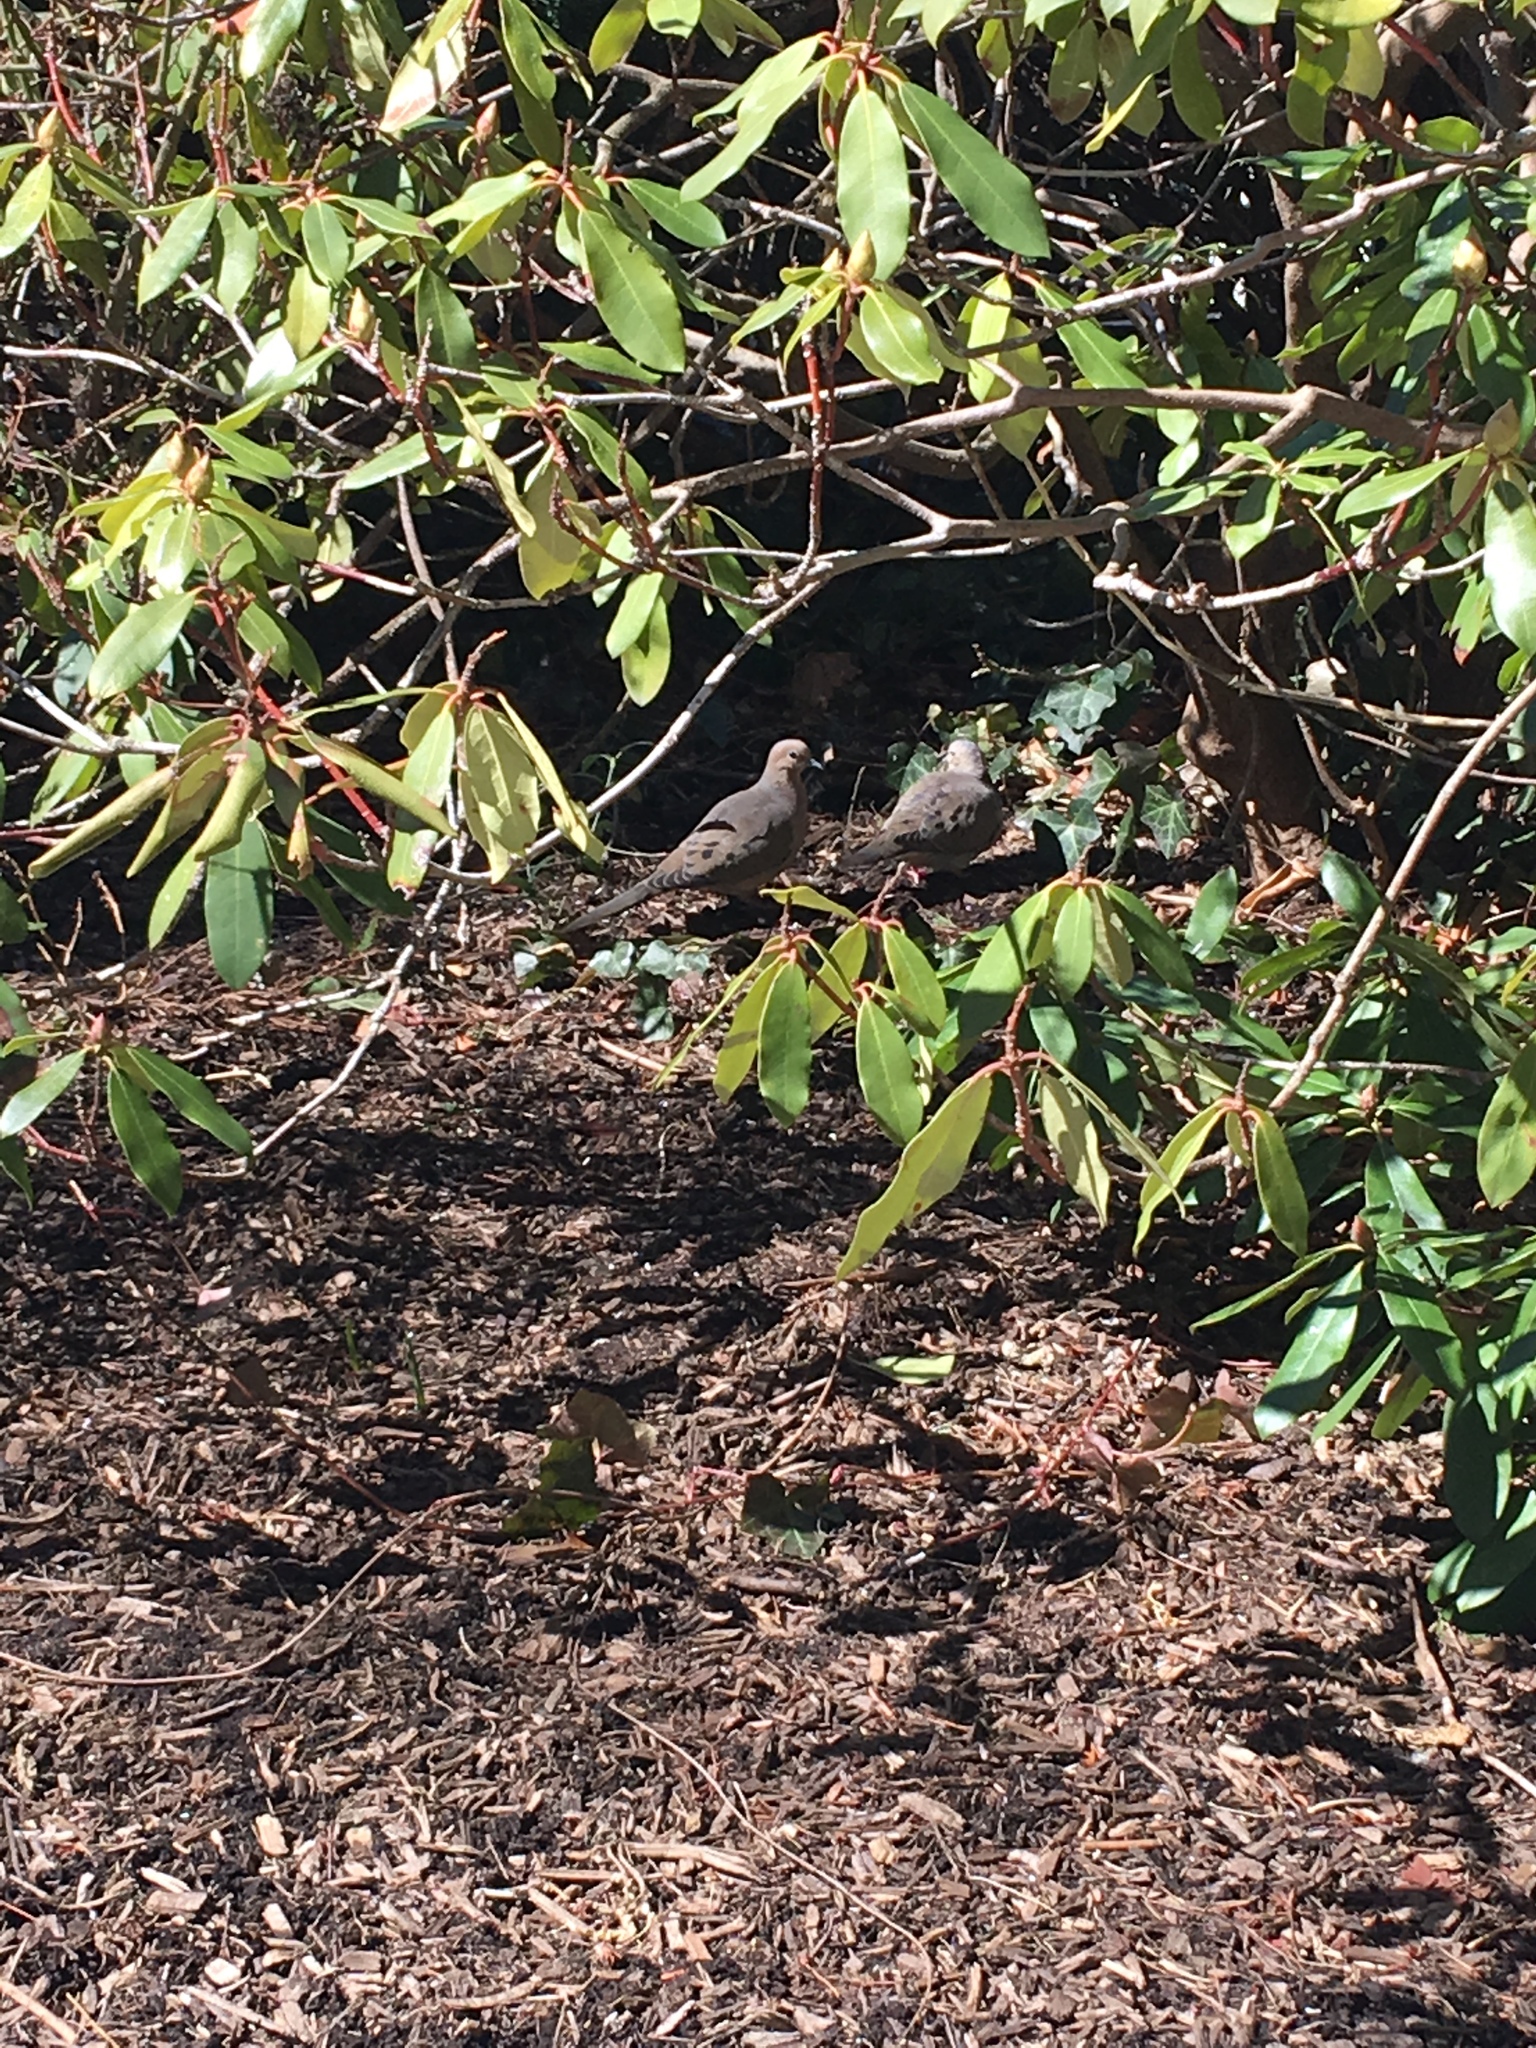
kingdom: Animalia
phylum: Chordata
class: Aves
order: Columbiformes
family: Columbidae
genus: Zenaida
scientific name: Zenaida macroura
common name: Mourning dove
